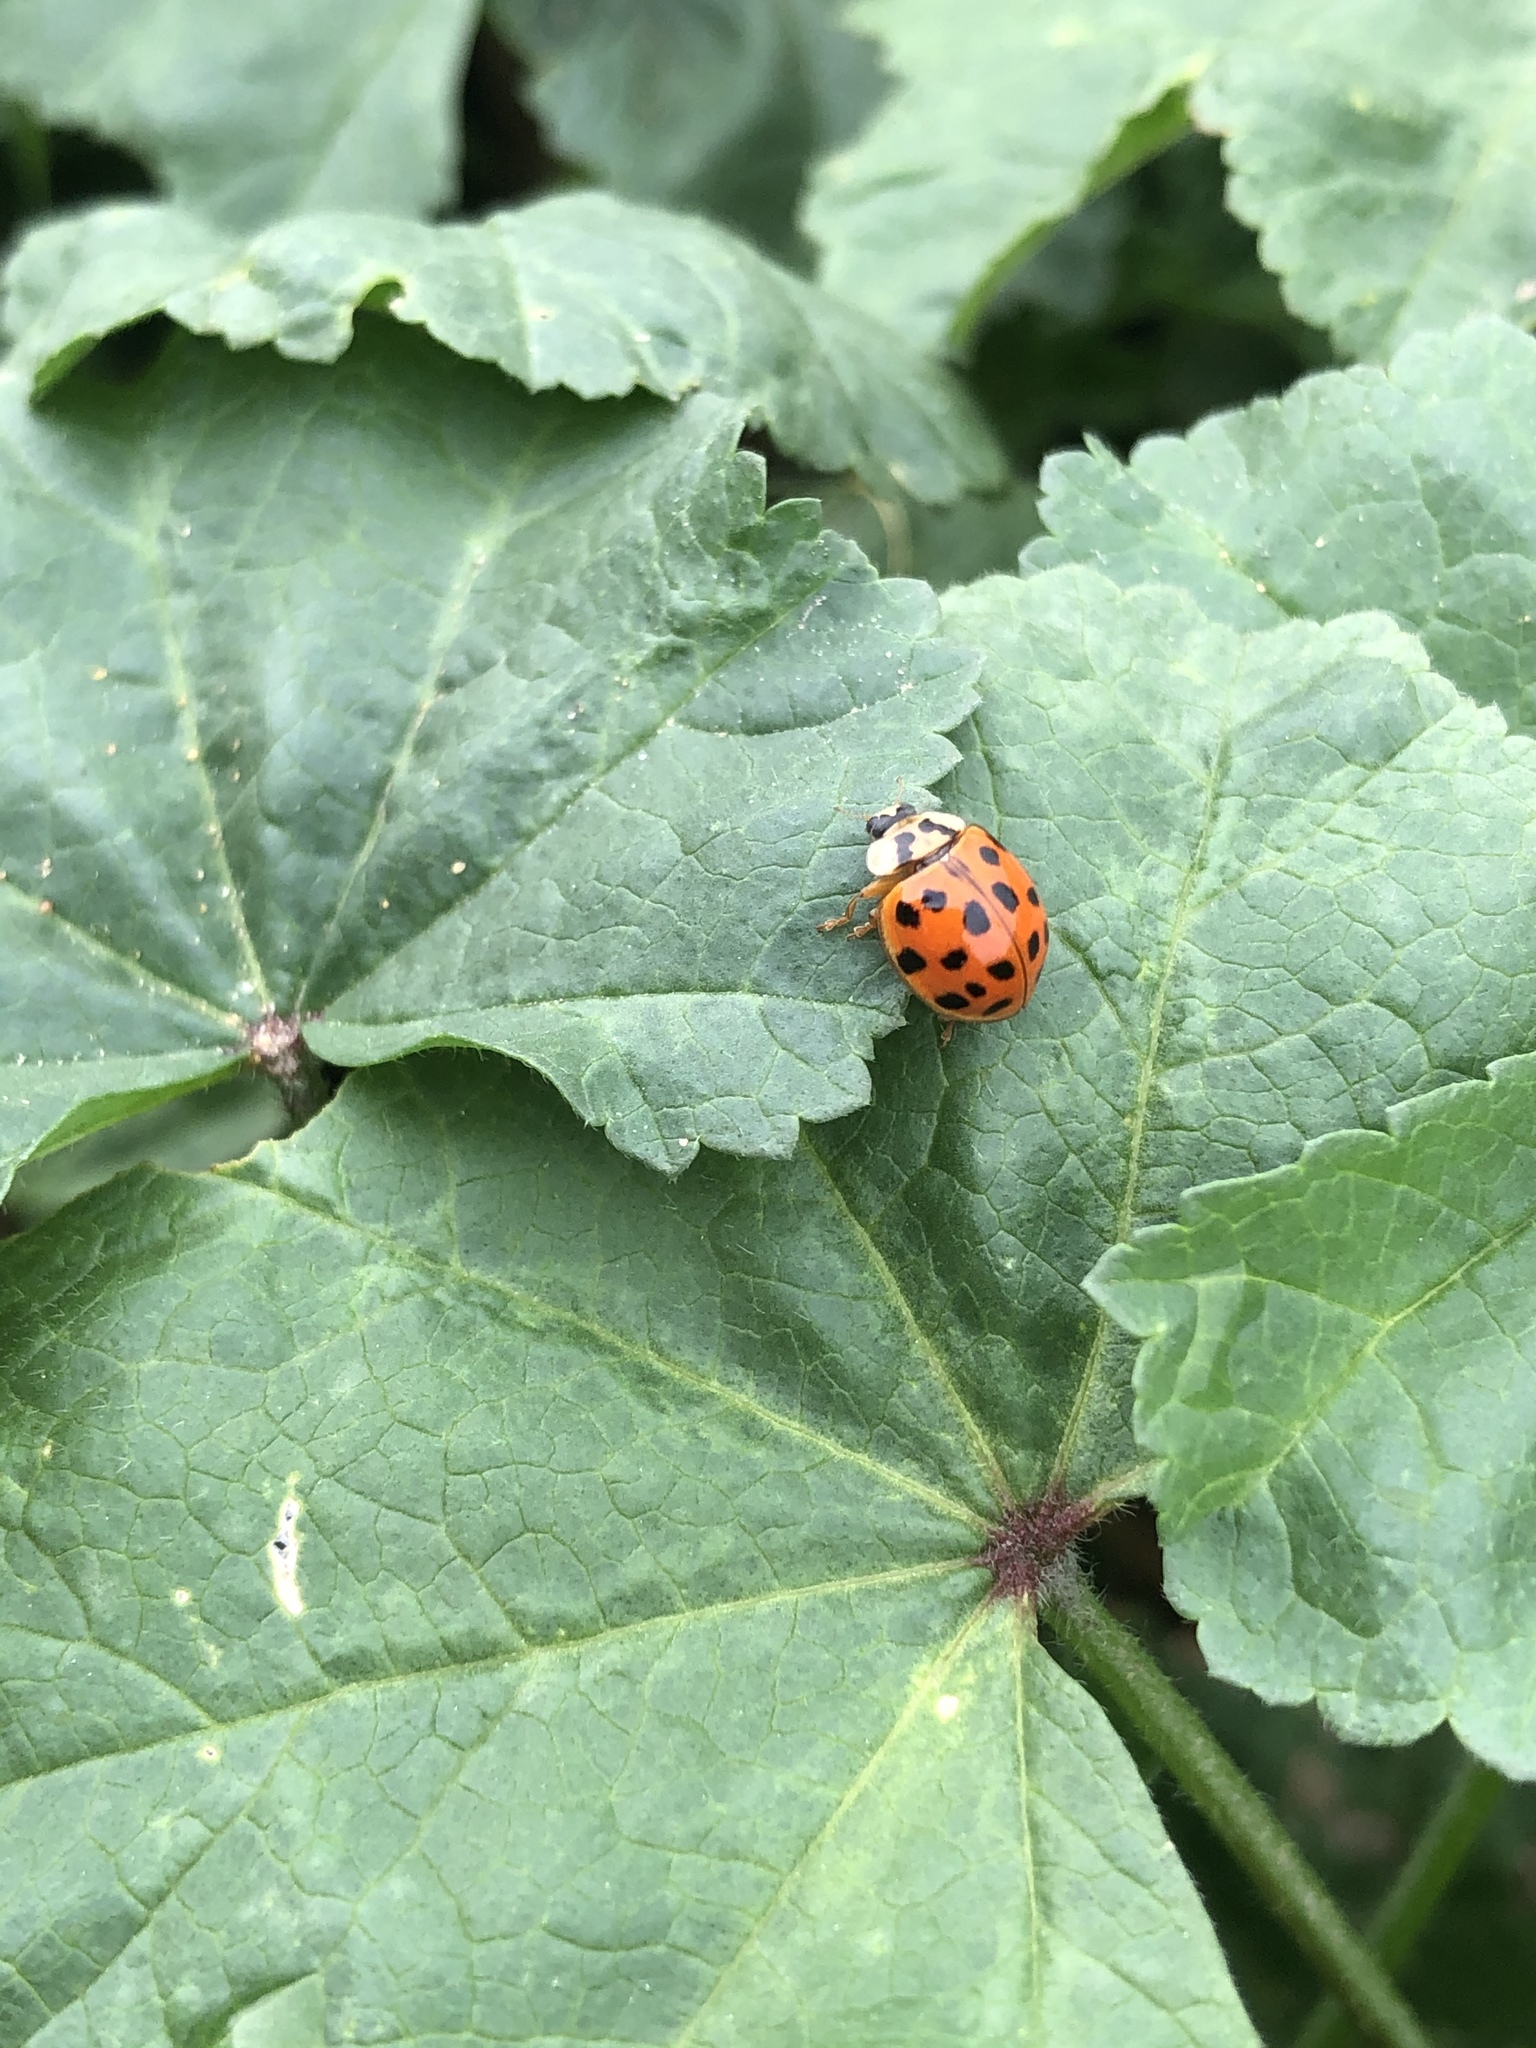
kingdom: Animalia
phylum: Arthropoda
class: Insecta
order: Coleoptera
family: Coccinellidae
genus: Harmonia
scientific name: Harmonia axyridis
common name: Harlequin ladybird
